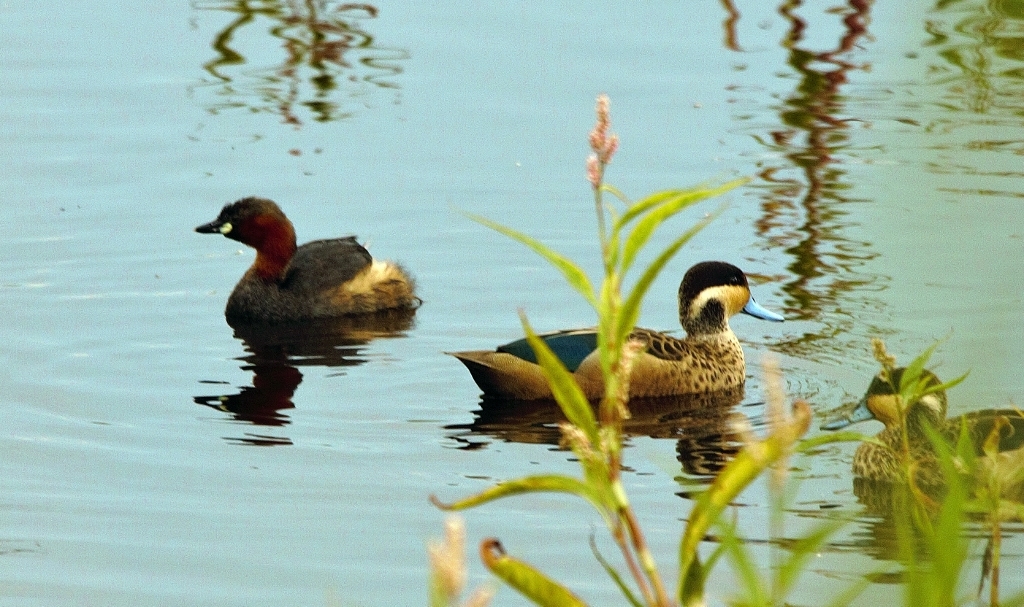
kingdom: Animalia
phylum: Chordata
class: Aves
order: Podicipediformes
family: Podicipedidae
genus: Tachybaptus
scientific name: Tachybaptus ruficollis
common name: Little grebe
